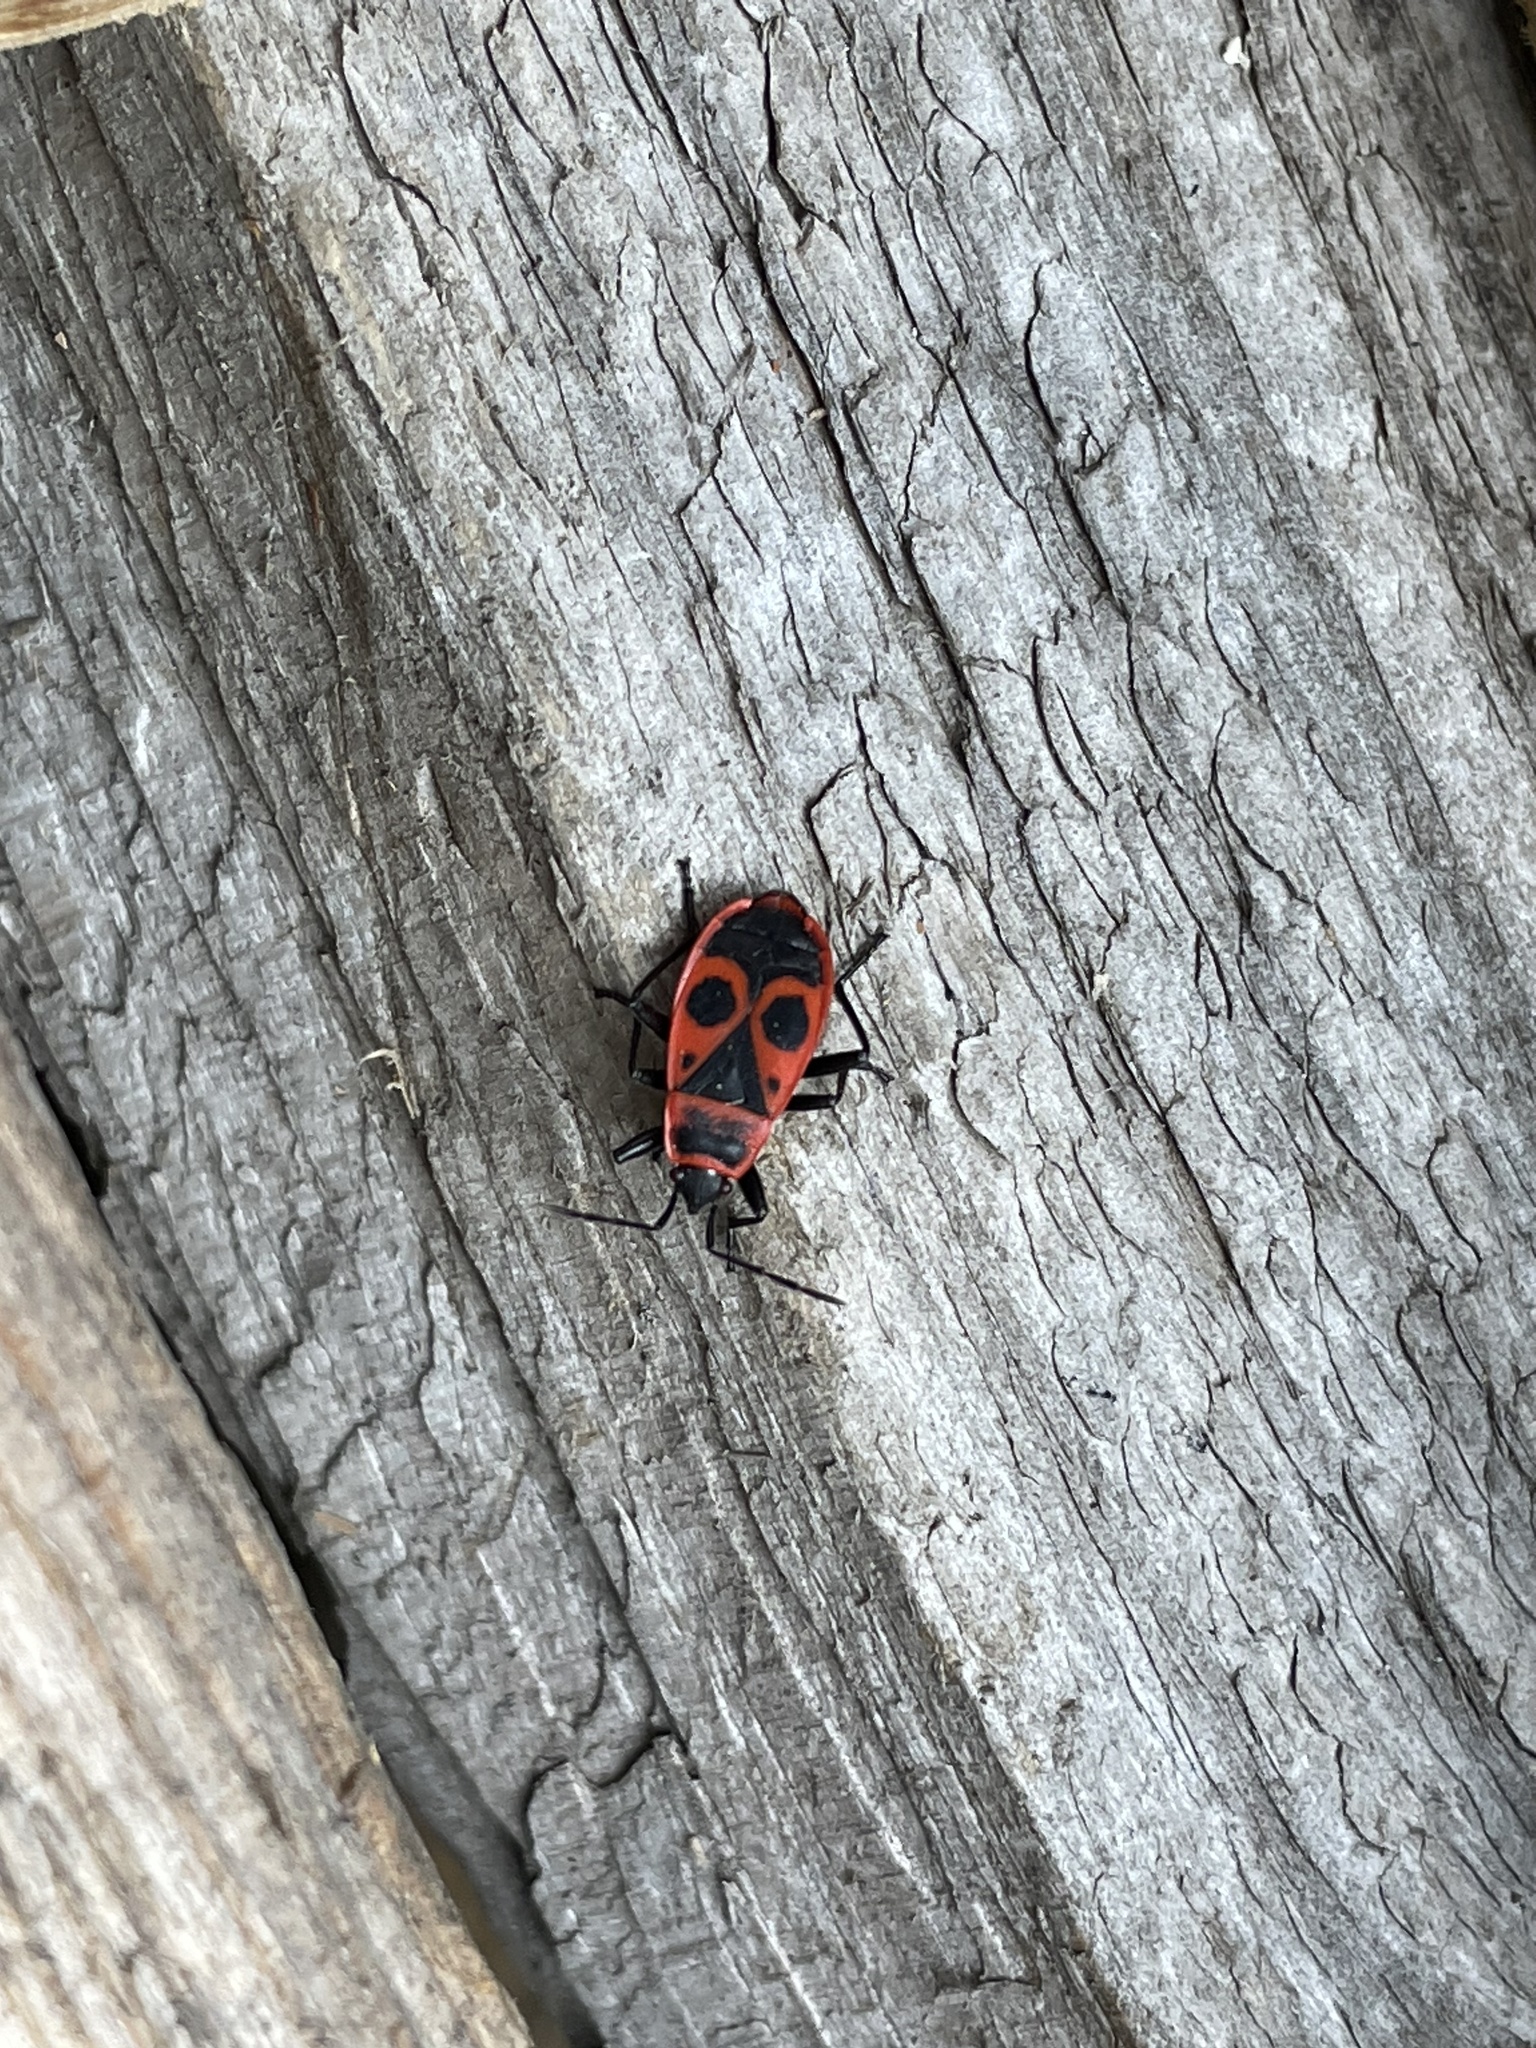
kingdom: Animalia
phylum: Arthropoda
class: Insecta
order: Hemiptera
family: Pyrrhocoridae
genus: Pyrrhocoris
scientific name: Pyrrhocoris apterus
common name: Firebug
